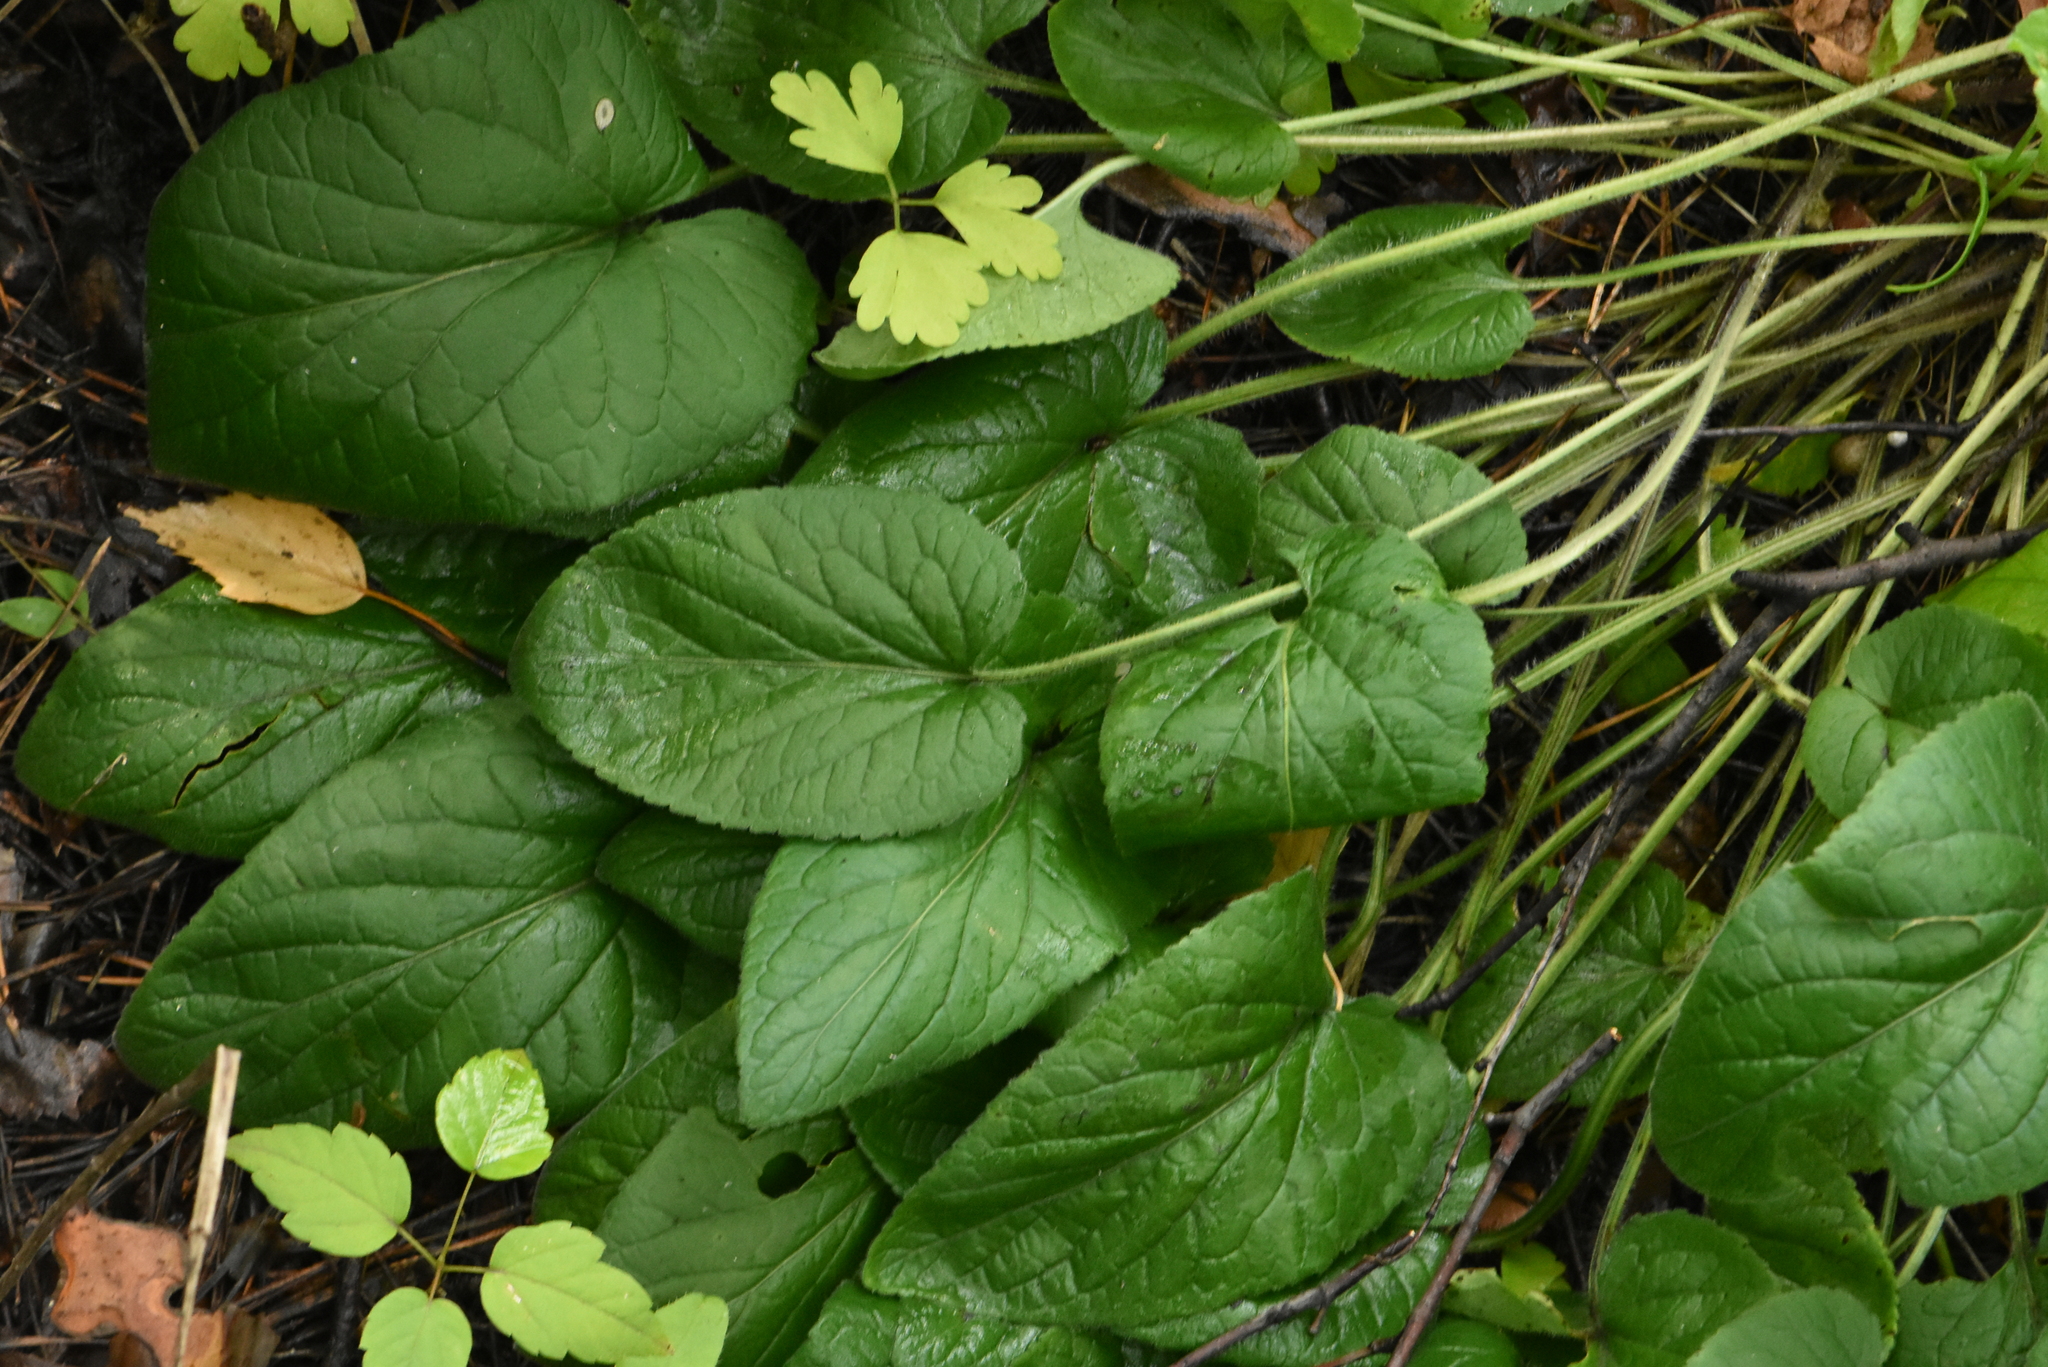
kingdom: Plantae
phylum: Tracheophyta
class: Magnoliopsida
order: Malpighiales
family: Violaceae
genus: Viola
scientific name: Viola hirta
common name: Hairy violet
